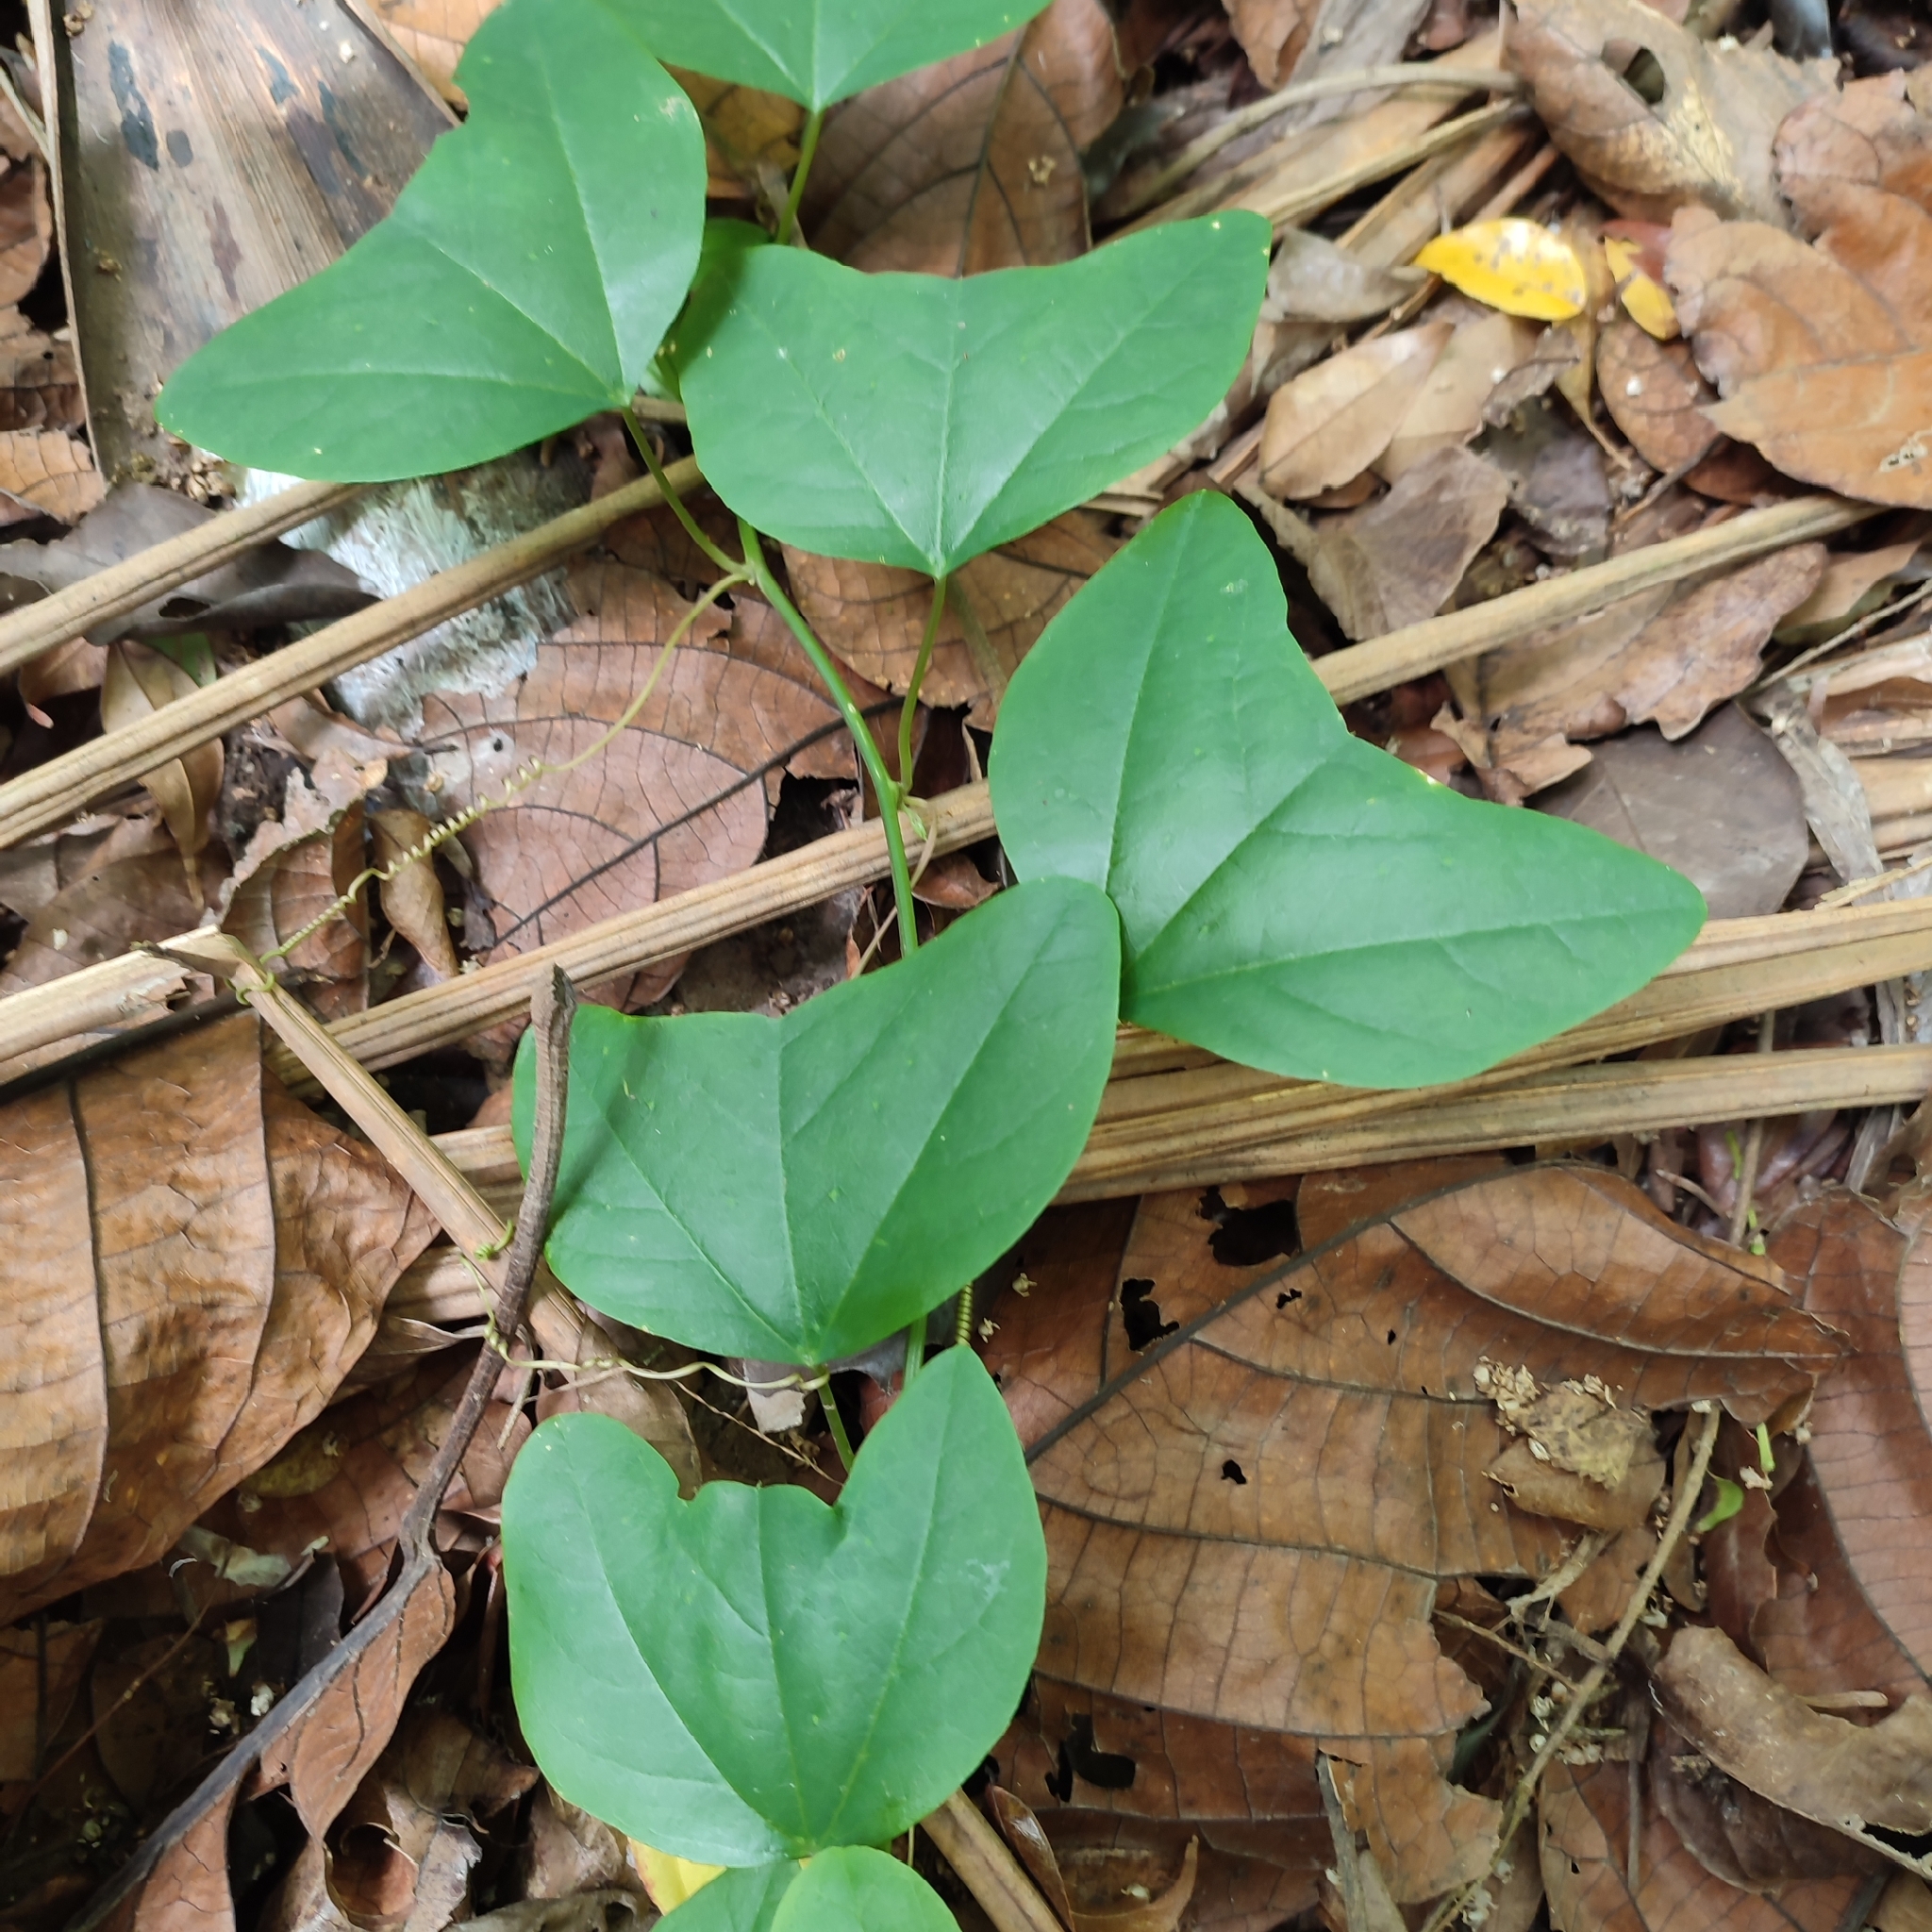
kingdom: Plantae
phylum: Tracheophyta
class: Magnoliopsida
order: Malpighiales
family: Passifloraceae
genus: Passiflora
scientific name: Passiflora andersonii
